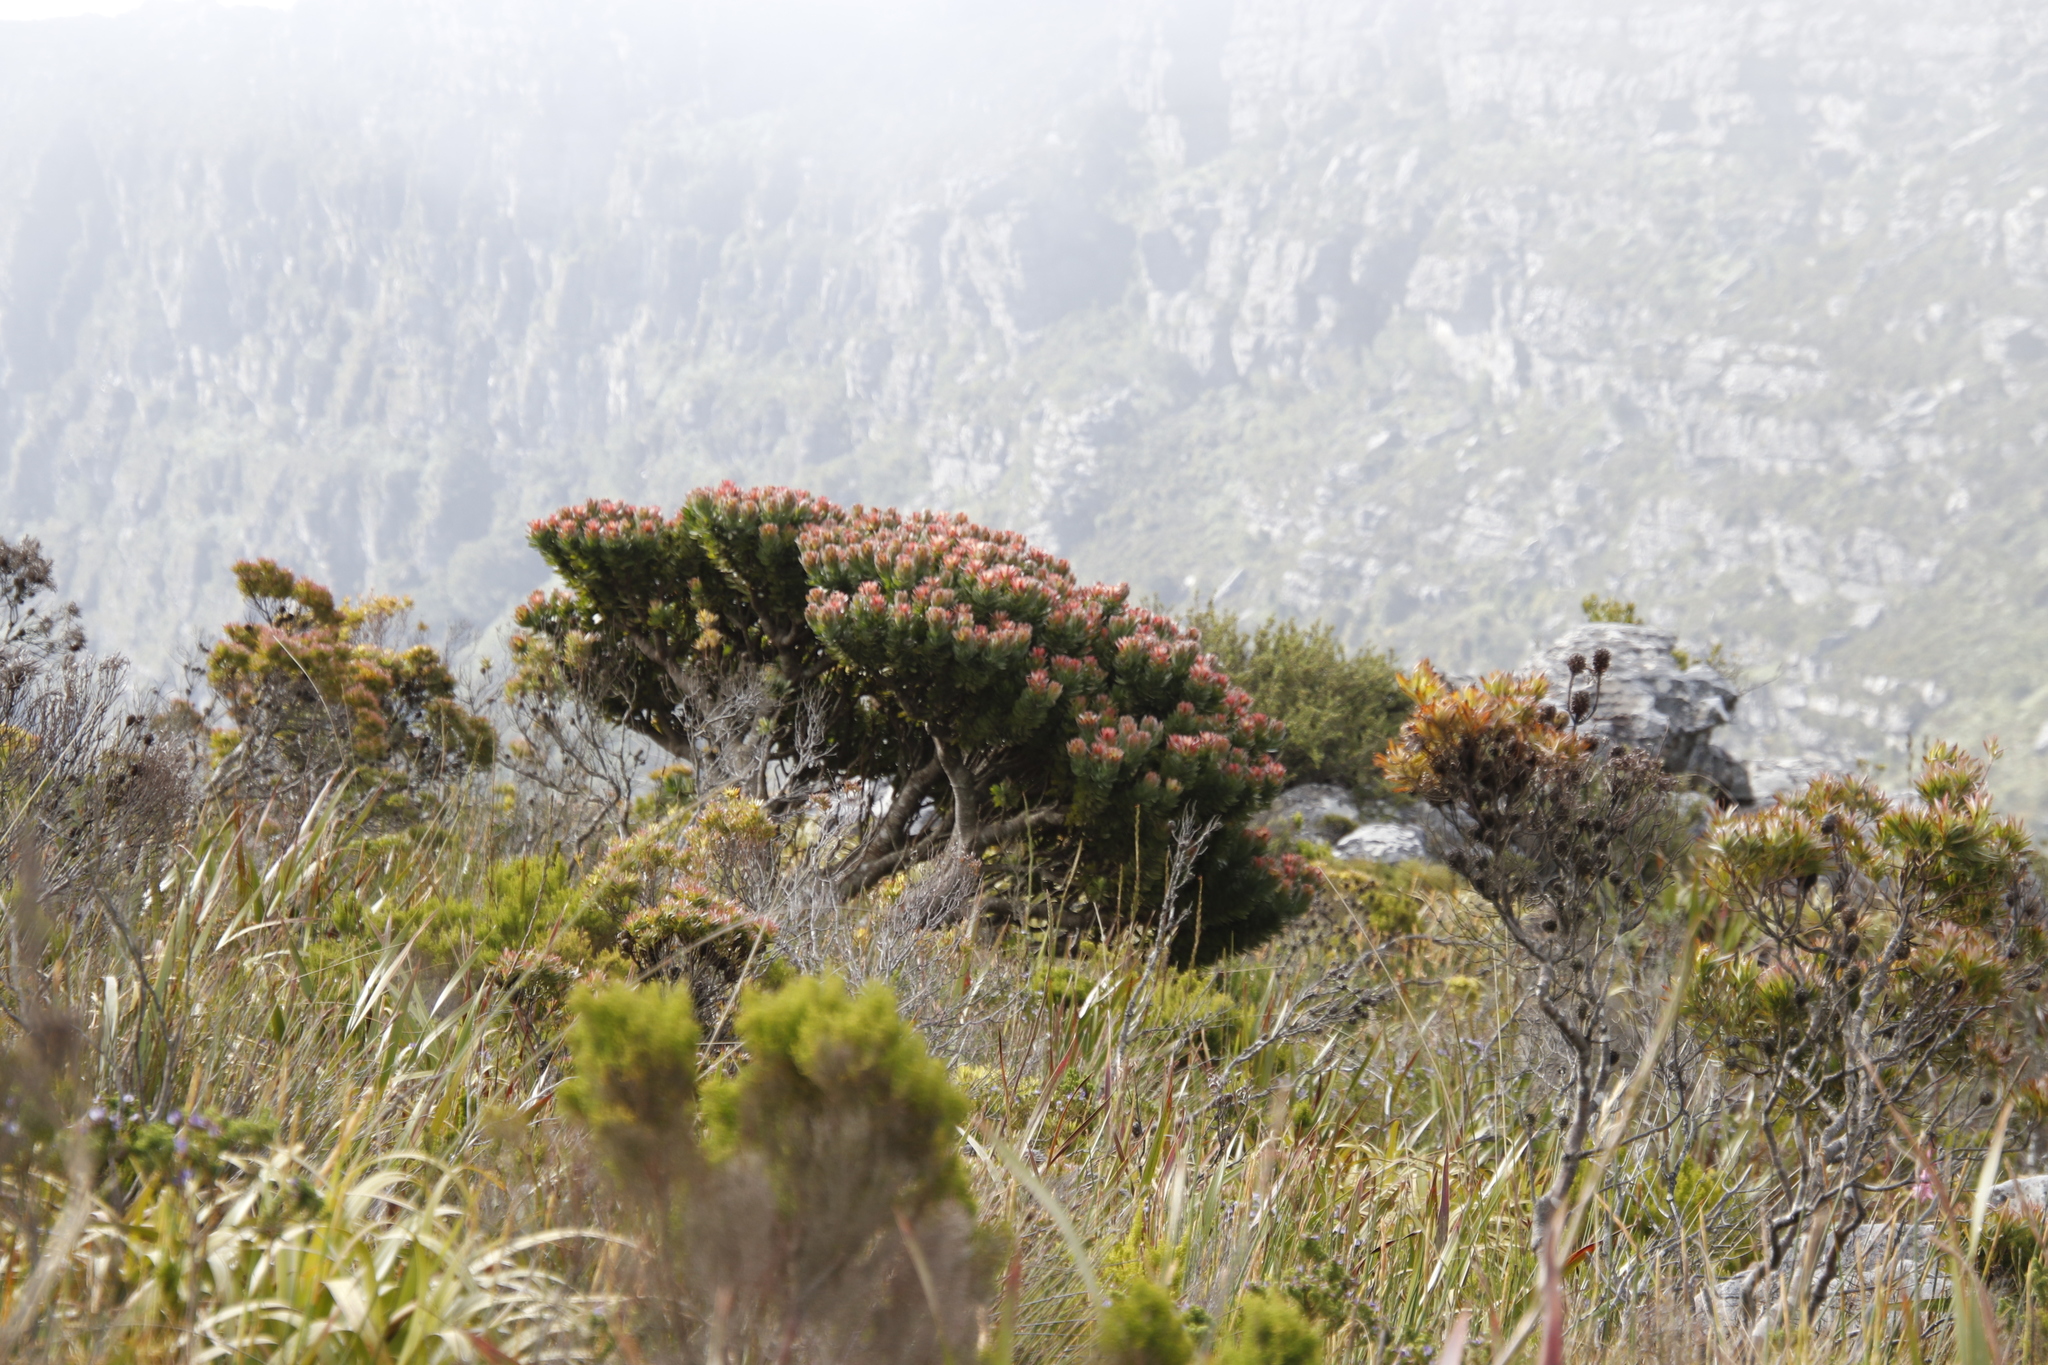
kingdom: Plantae
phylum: Tracheophyta
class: Magnoliopsida
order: Proteales
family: Proteaceae
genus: Mimetes
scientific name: Mimetes fimbriifolius
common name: Fringed bottlebrush
